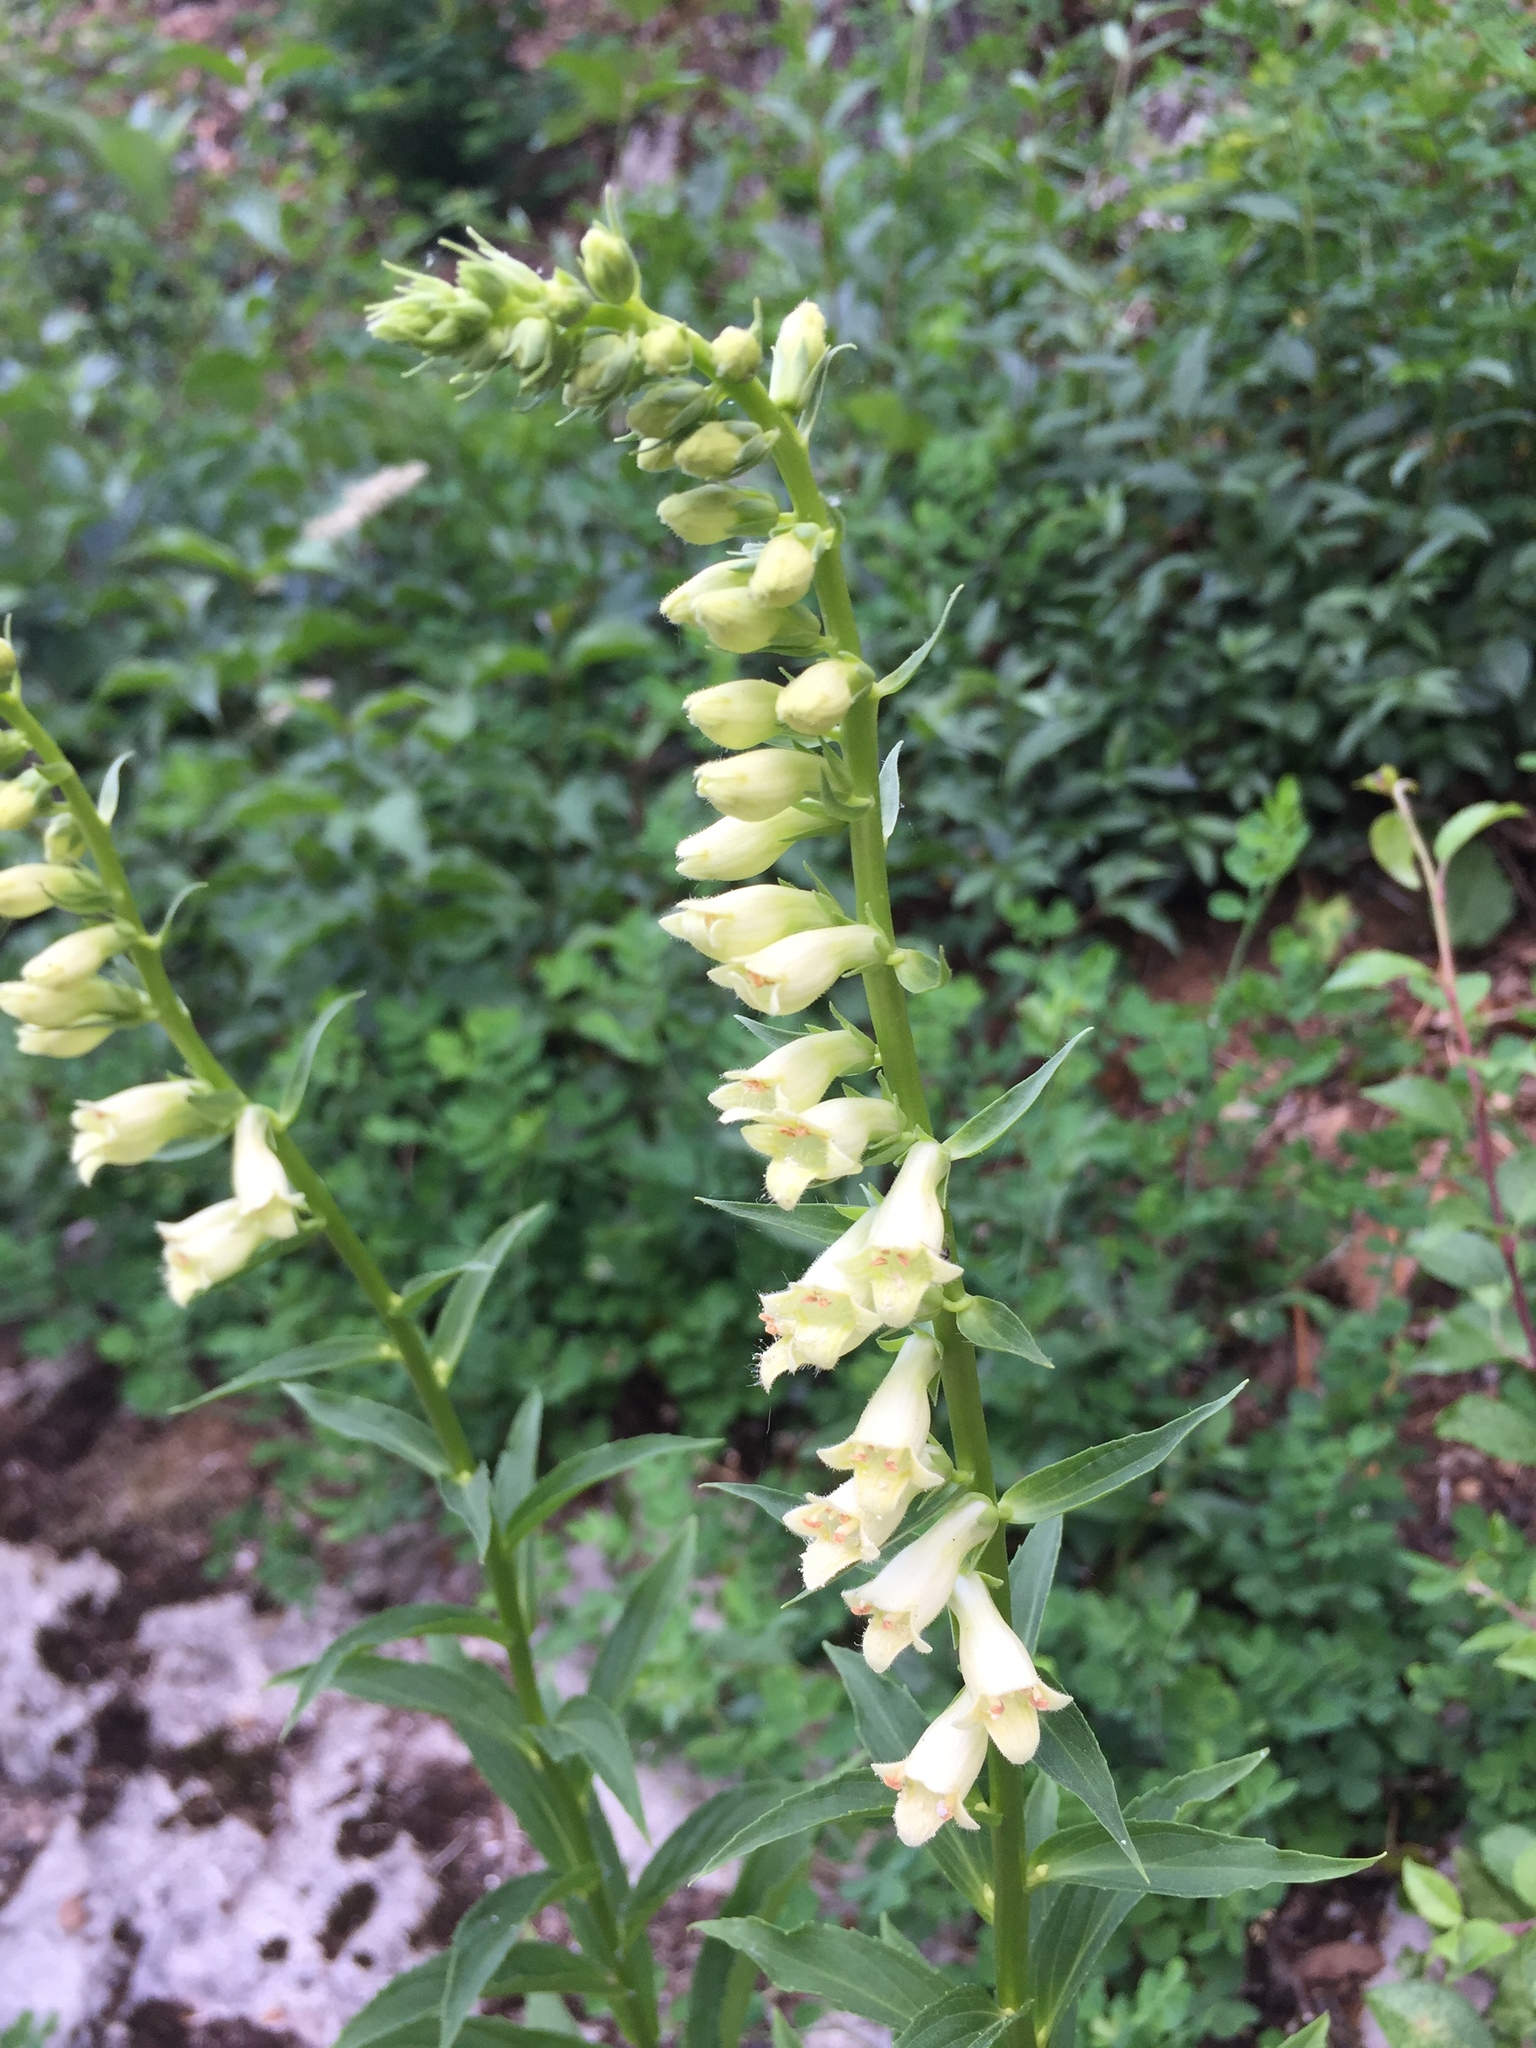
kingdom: Plantae
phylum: Tracheophyta
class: Magnoliopsida
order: Lamiales
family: Plantaginaceae
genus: Digitalis
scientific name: Digitalis lutea
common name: Straw foxglove
